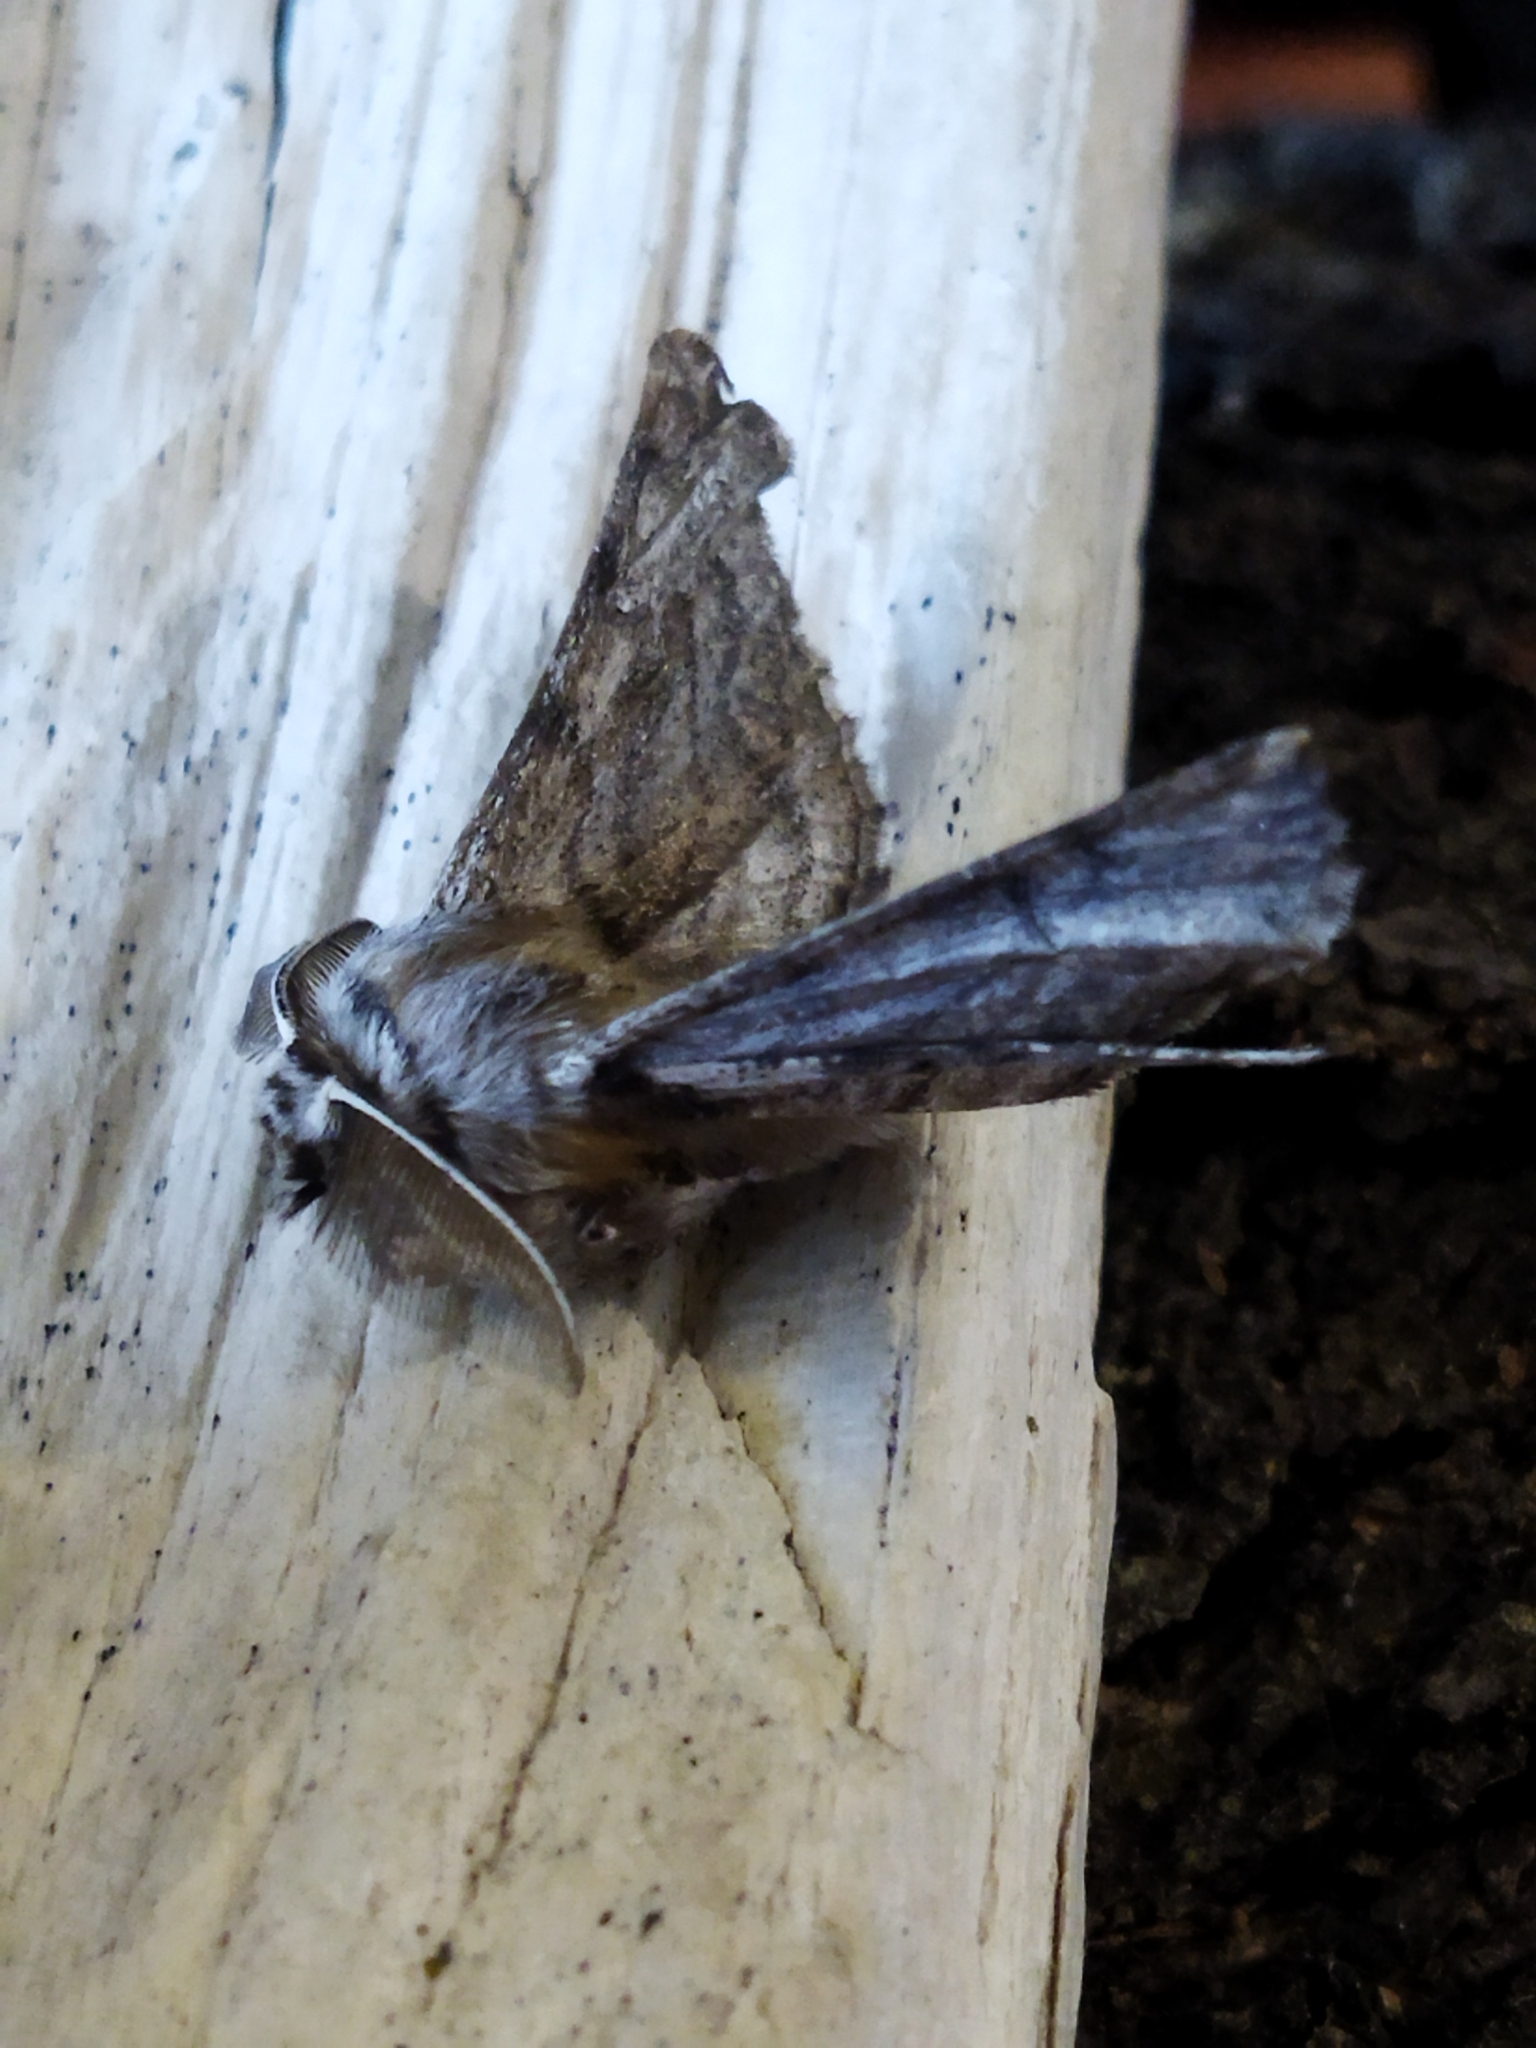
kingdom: Animalia
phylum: Arthropoda
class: Insecta
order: Lepidoptera
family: Geometridae
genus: Apochima
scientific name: Apochima flabellaria
